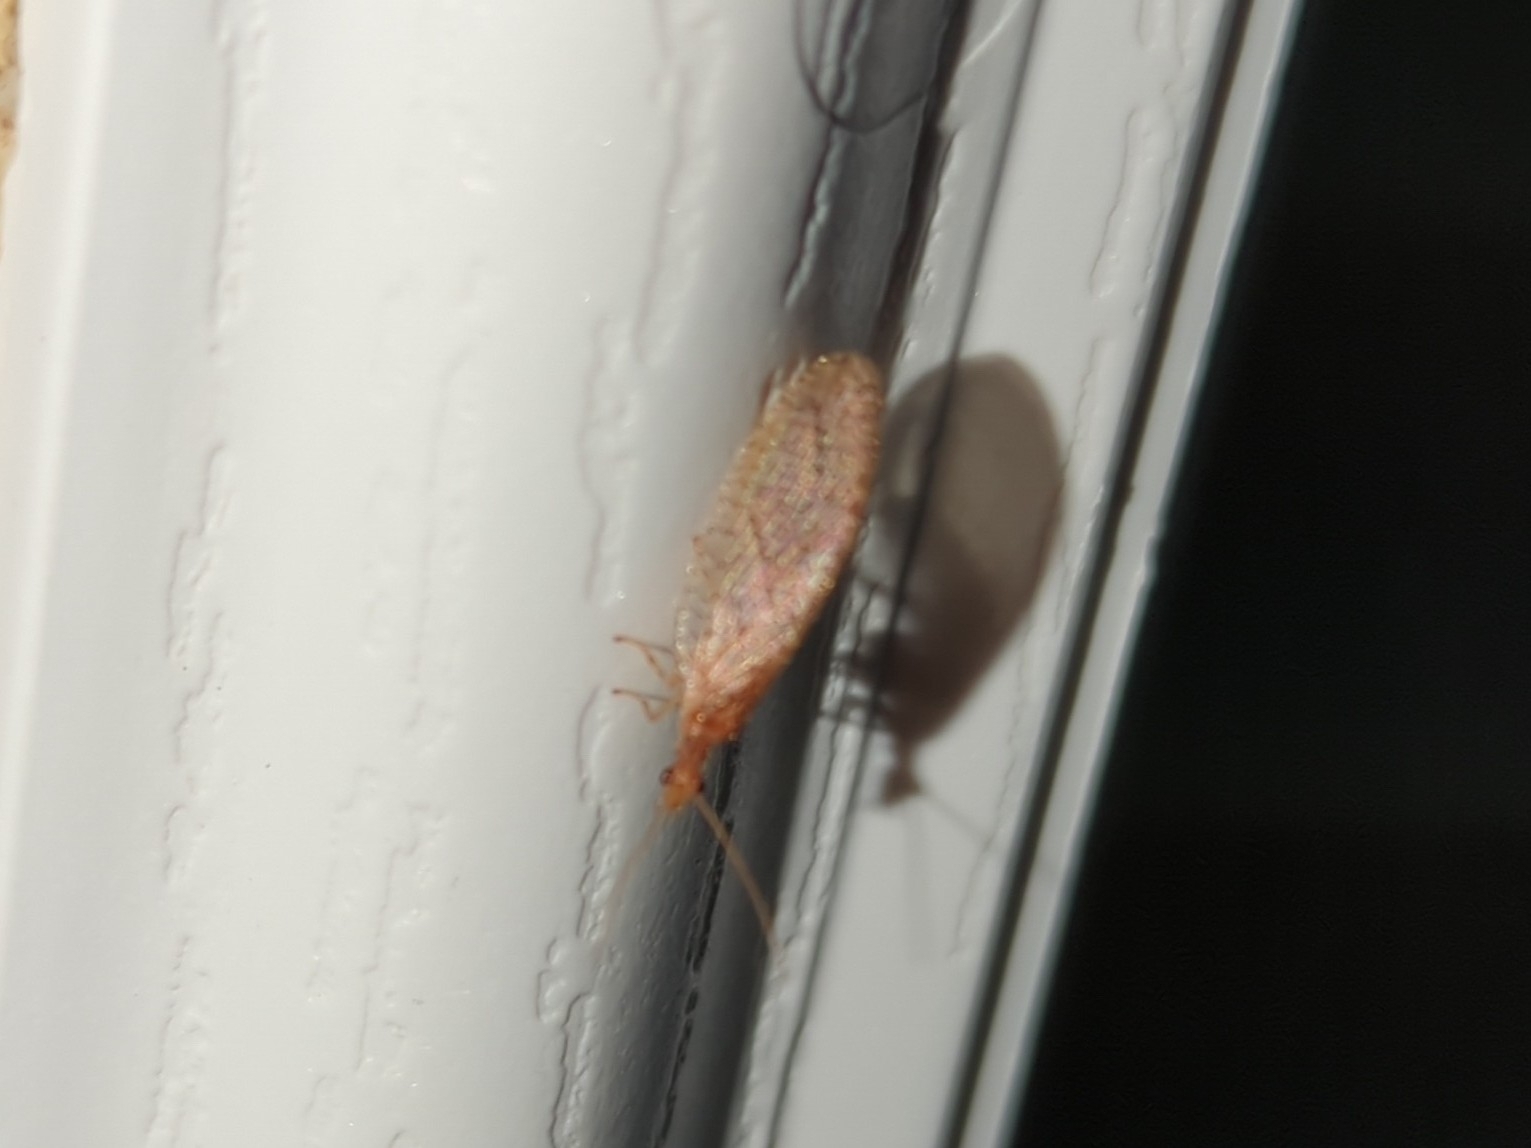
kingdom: Animalia
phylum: Arthropoda
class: Insecta
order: Neuroptera
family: Hemerobiidae
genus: Micromus
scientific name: Micromus posticus
